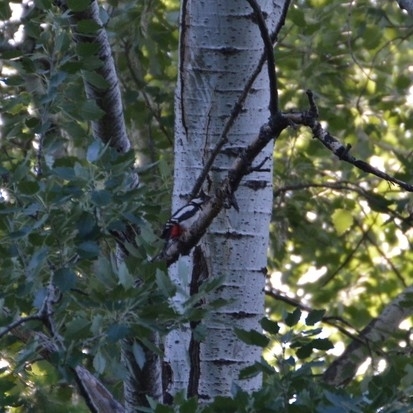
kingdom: Animalia
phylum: Chordata
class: Aves
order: Piciformes
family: Picidae
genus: Dendrocopos
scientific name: Dendrocopos major
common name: Great spotted woodpecker
